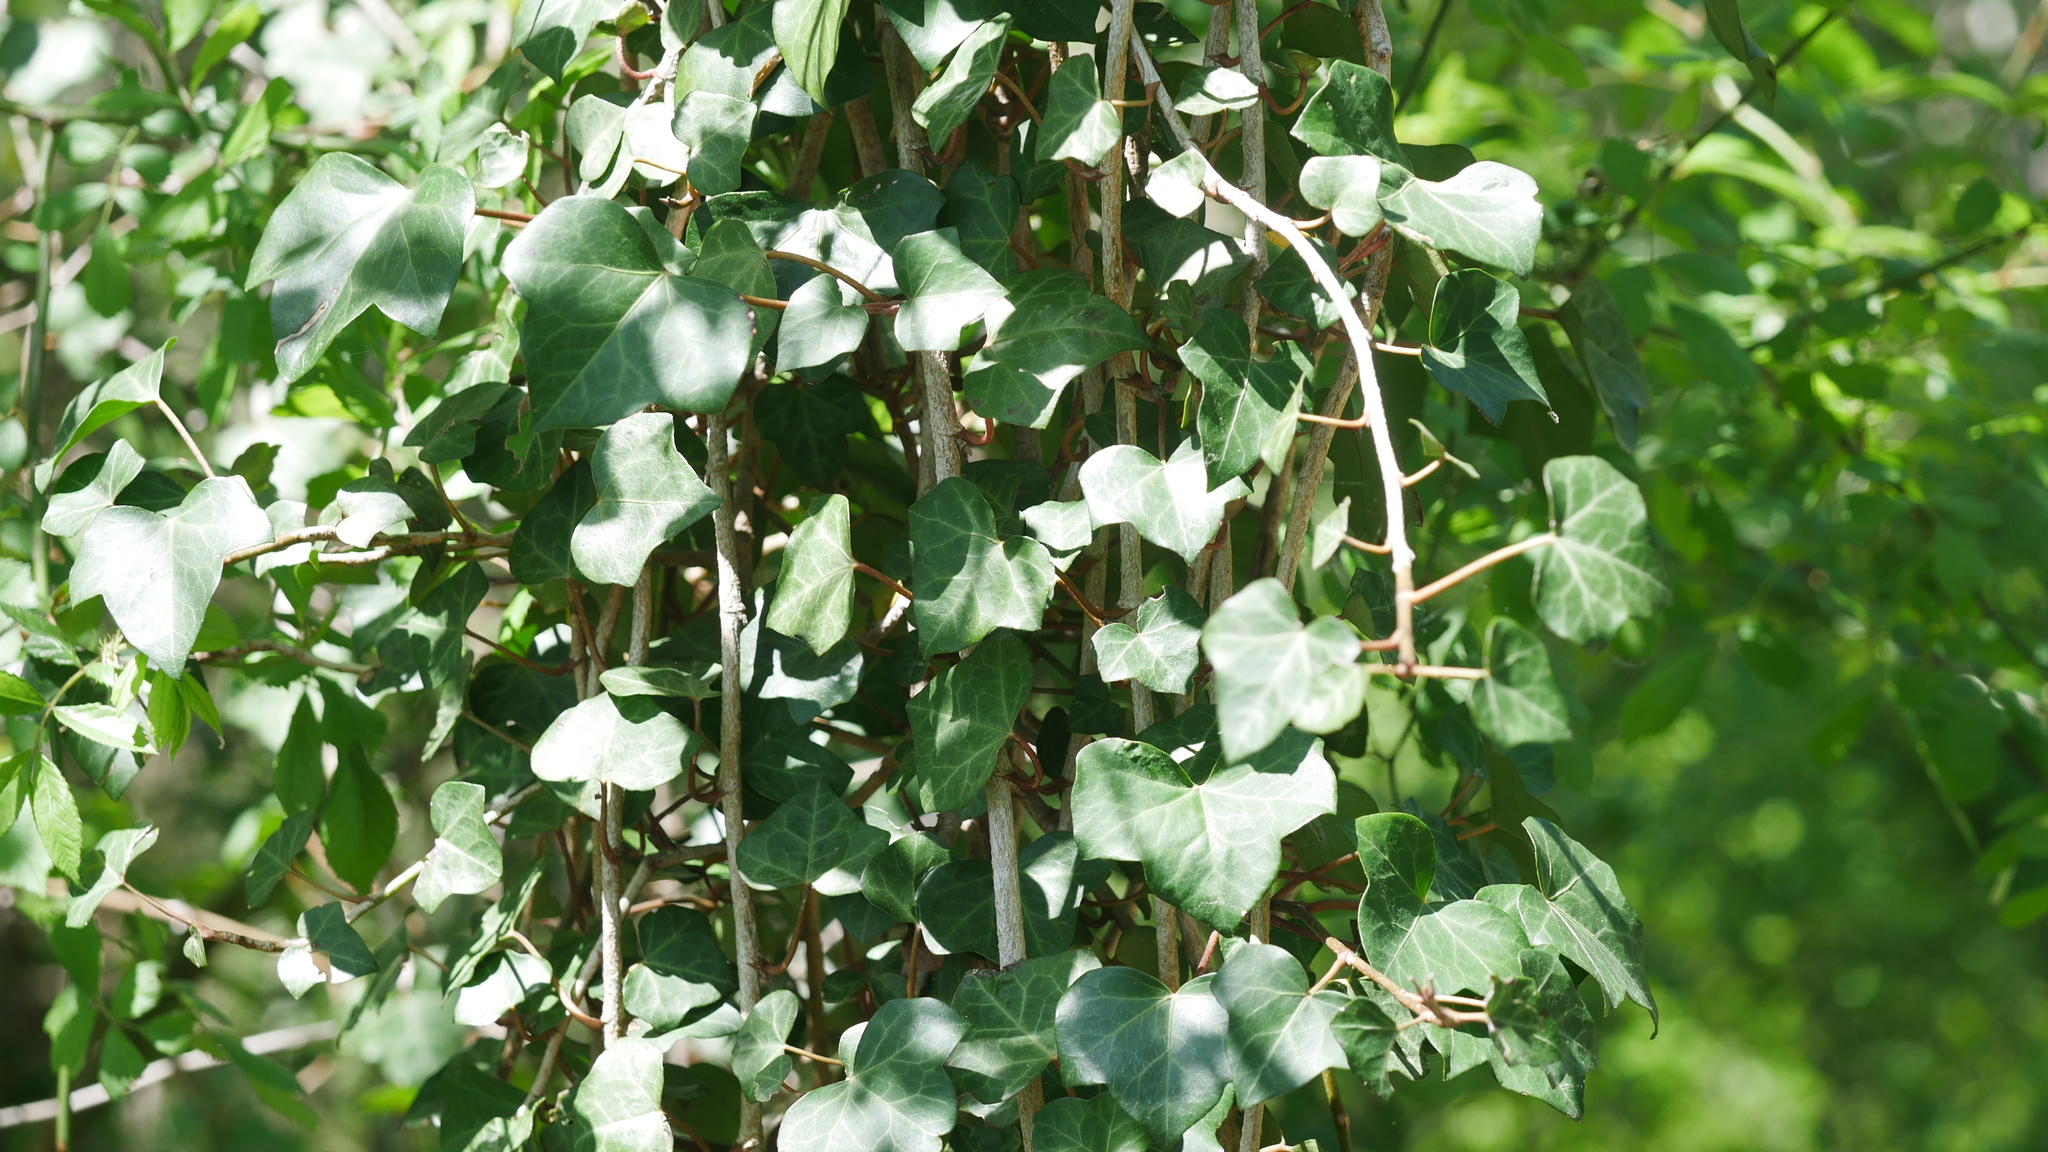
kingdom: Plantae
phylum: Tracheophyta
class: Magnoliopsida
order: Apiales
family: Araliaceae
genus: Hedera
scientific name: Hedera helix
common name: Ivy
